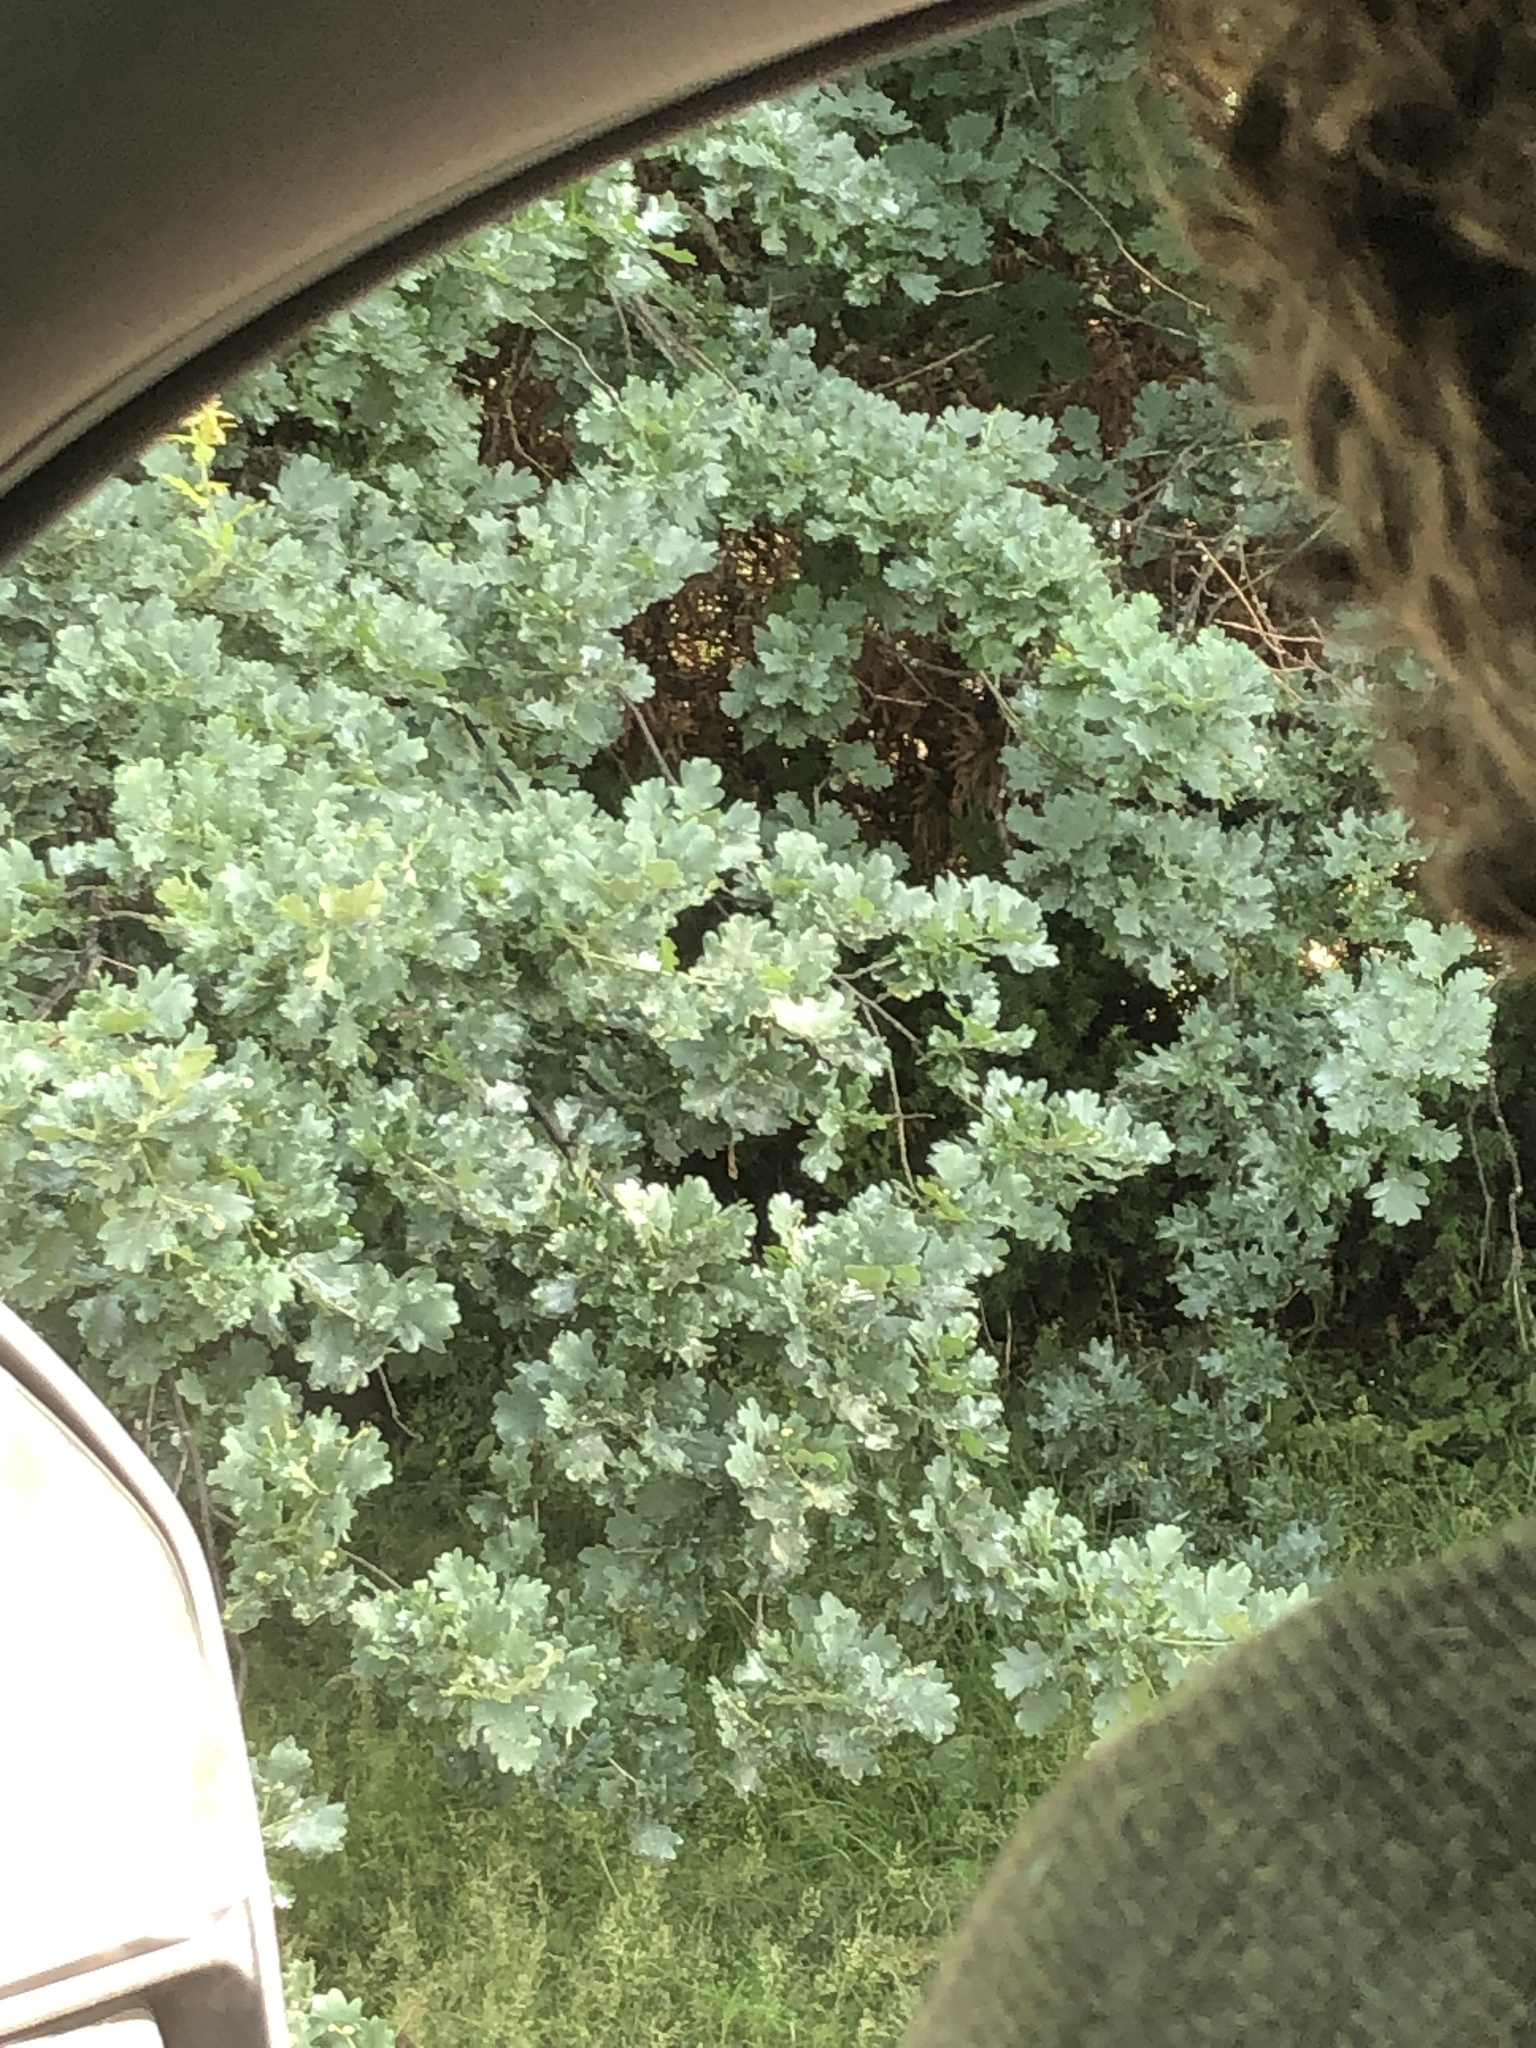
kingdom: Plantae
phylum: Tracheophyta
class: Magnoliopsida
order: Fagales
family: Fagaceae
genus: Quercus
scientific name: Quercus robur
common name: Pedunculate oak
